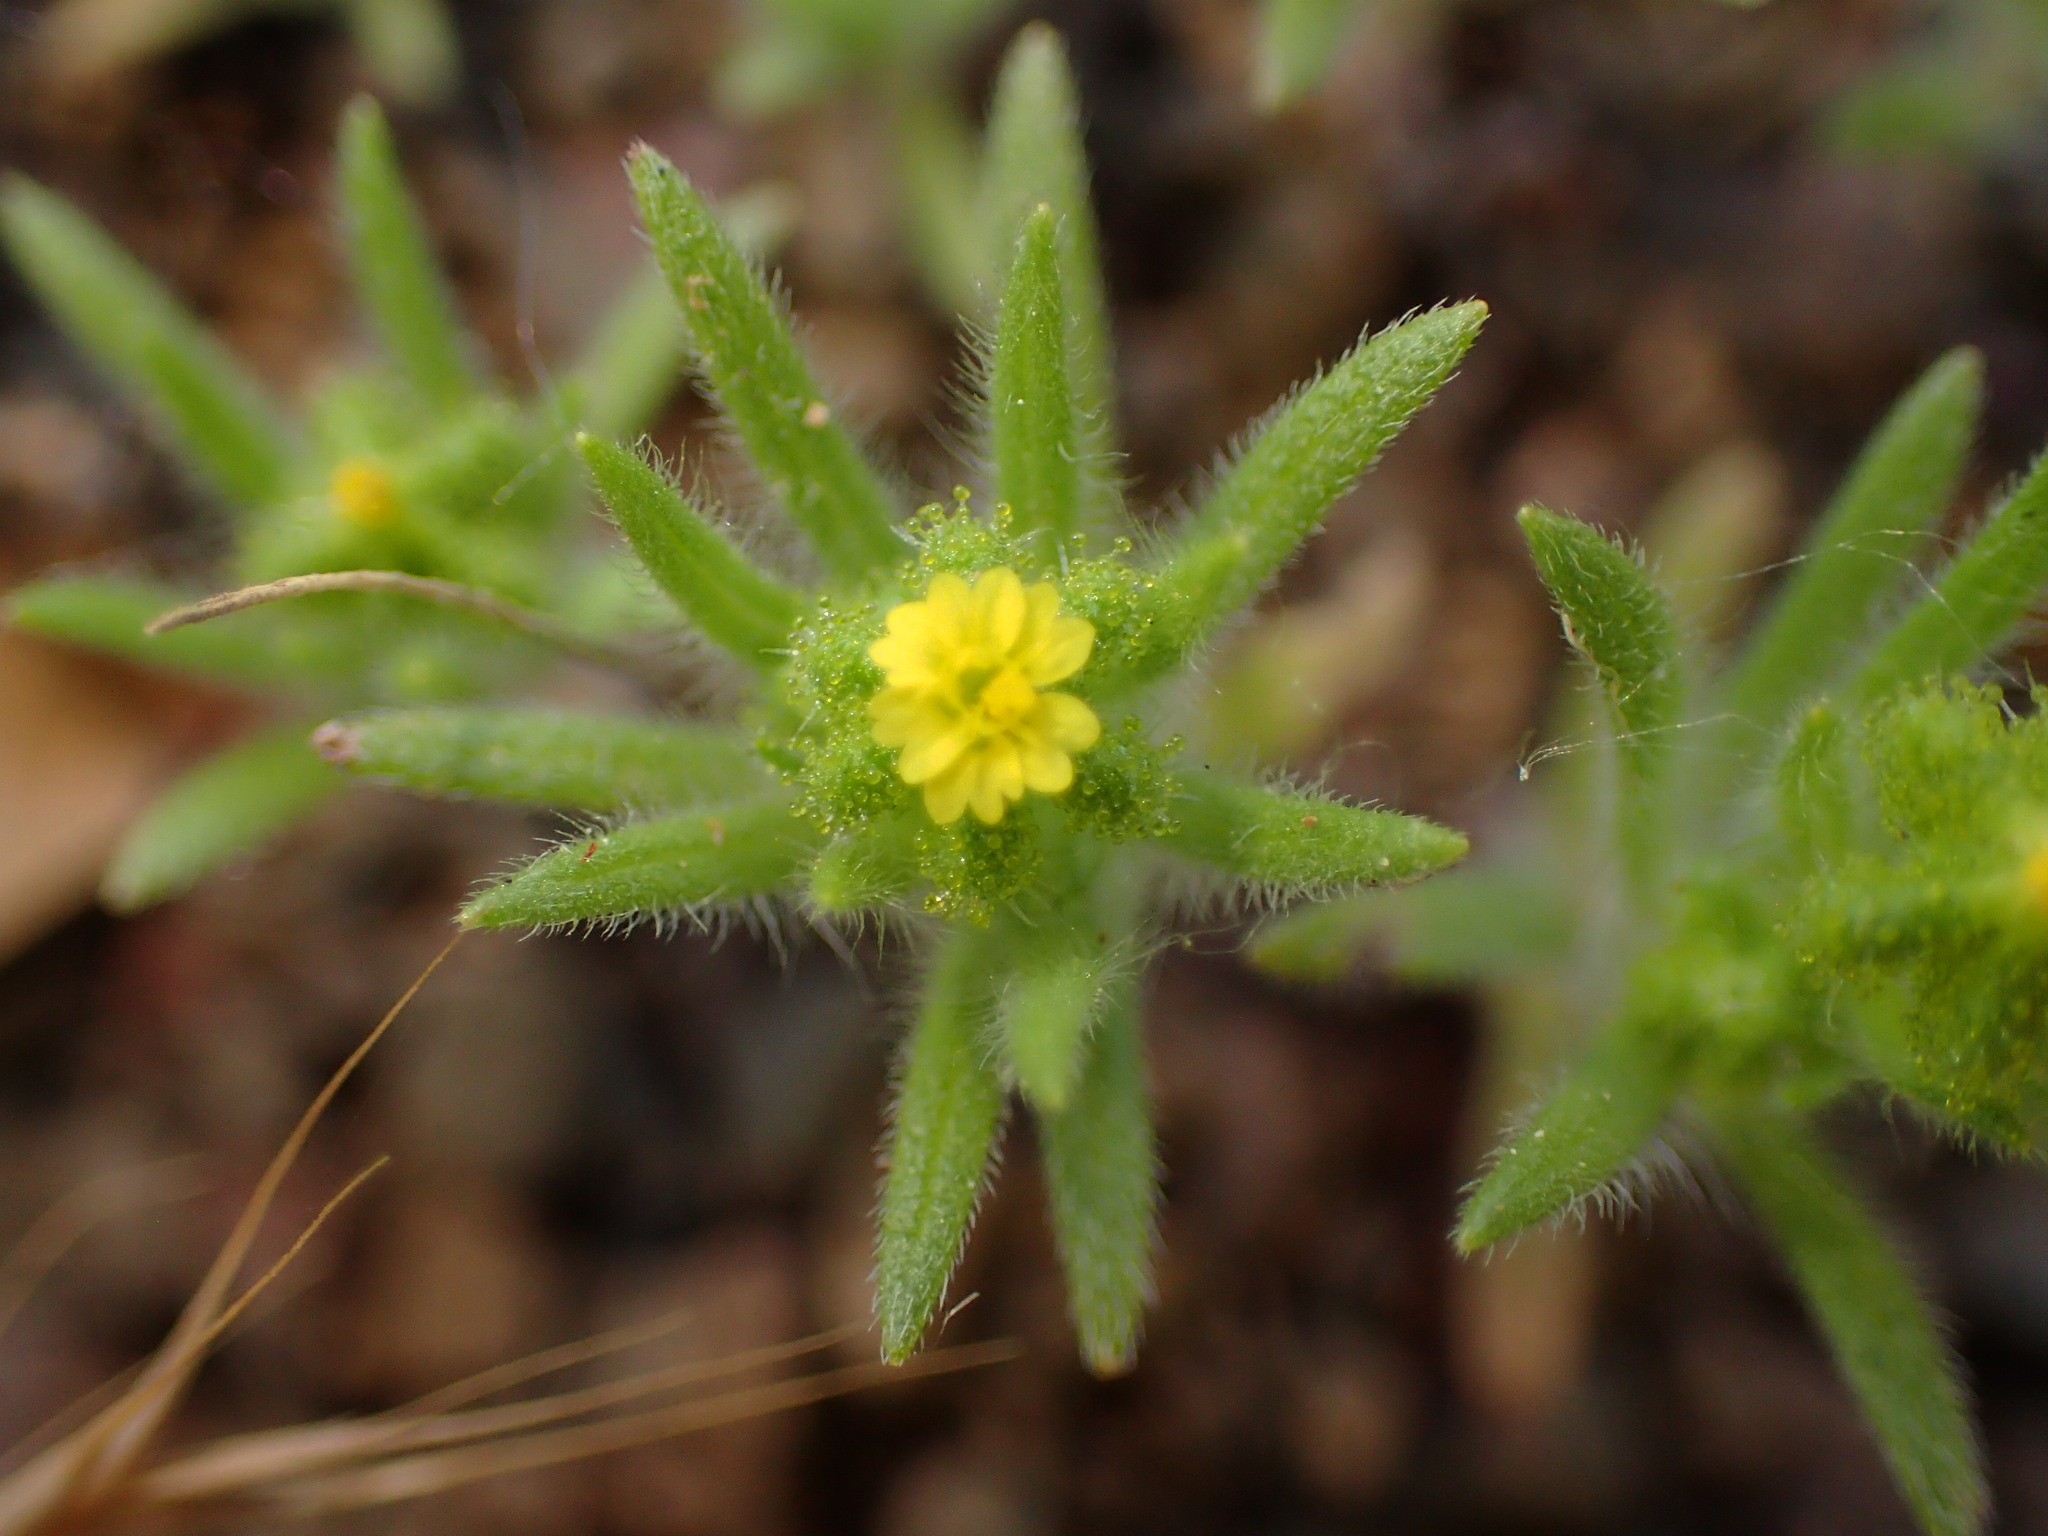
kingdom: Plantae
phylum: Tracheophyta
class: Magnoliopsida
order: Asterales
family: Asteraceae
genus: Madia
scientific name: Madia exigua
